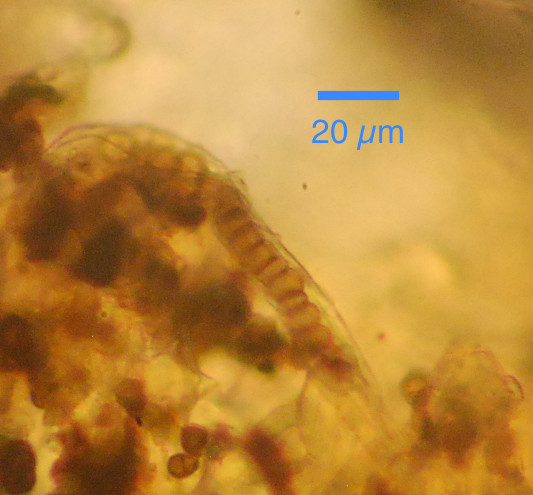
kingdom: Fungi
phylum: Ascomycota
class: Pezizomycetes
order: Pezizales
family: Morchellaceae
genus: Morchella
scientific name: Morchella tridentina
